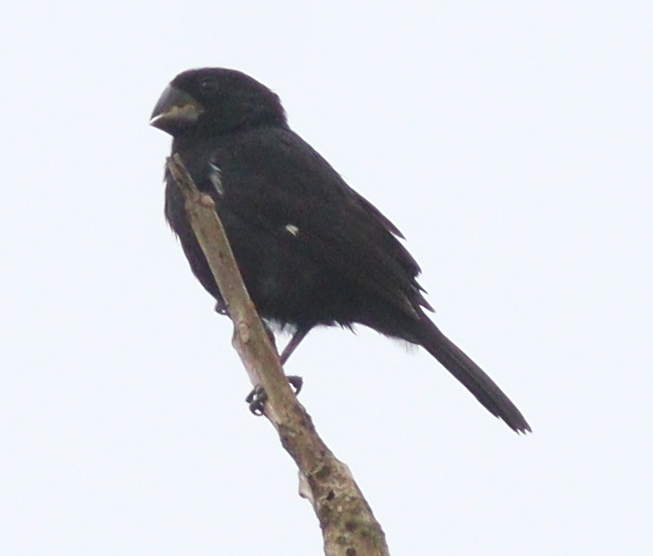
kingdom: Animalia
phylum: Chordata
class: Aves
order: Passeriformes
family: Thraupidae
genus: Sporophila
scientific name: Sporophila funerea
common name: Thick-billed seed-finch
